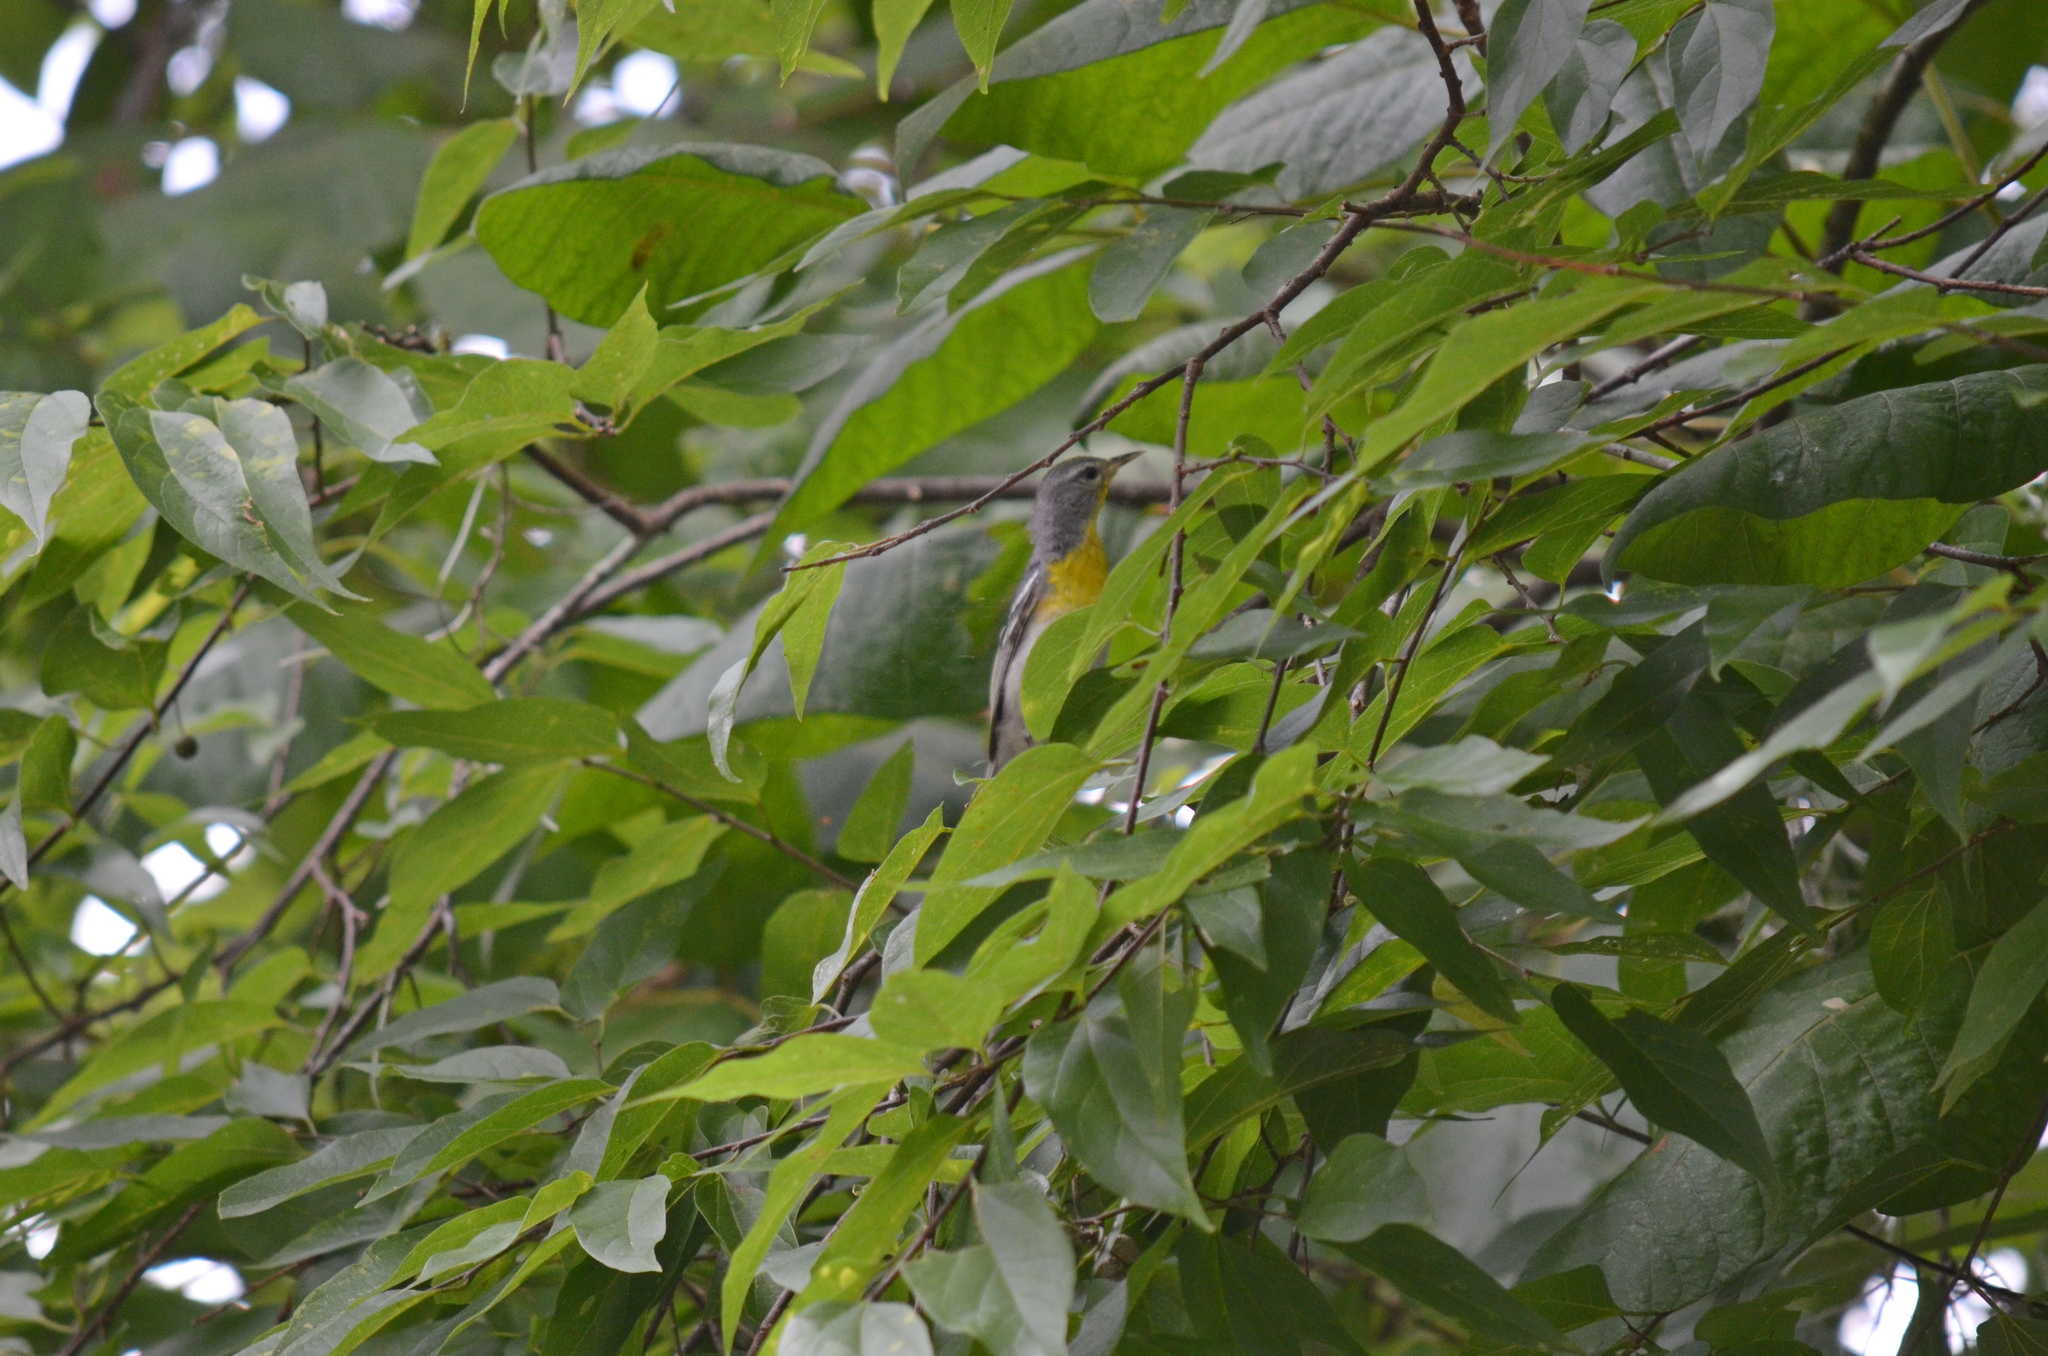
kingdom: Animalia
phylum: Chordata
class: Aves
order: Passeriformes
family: Parulidae
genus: Setophaga
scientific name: Setophaga americana
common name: Northern parula
